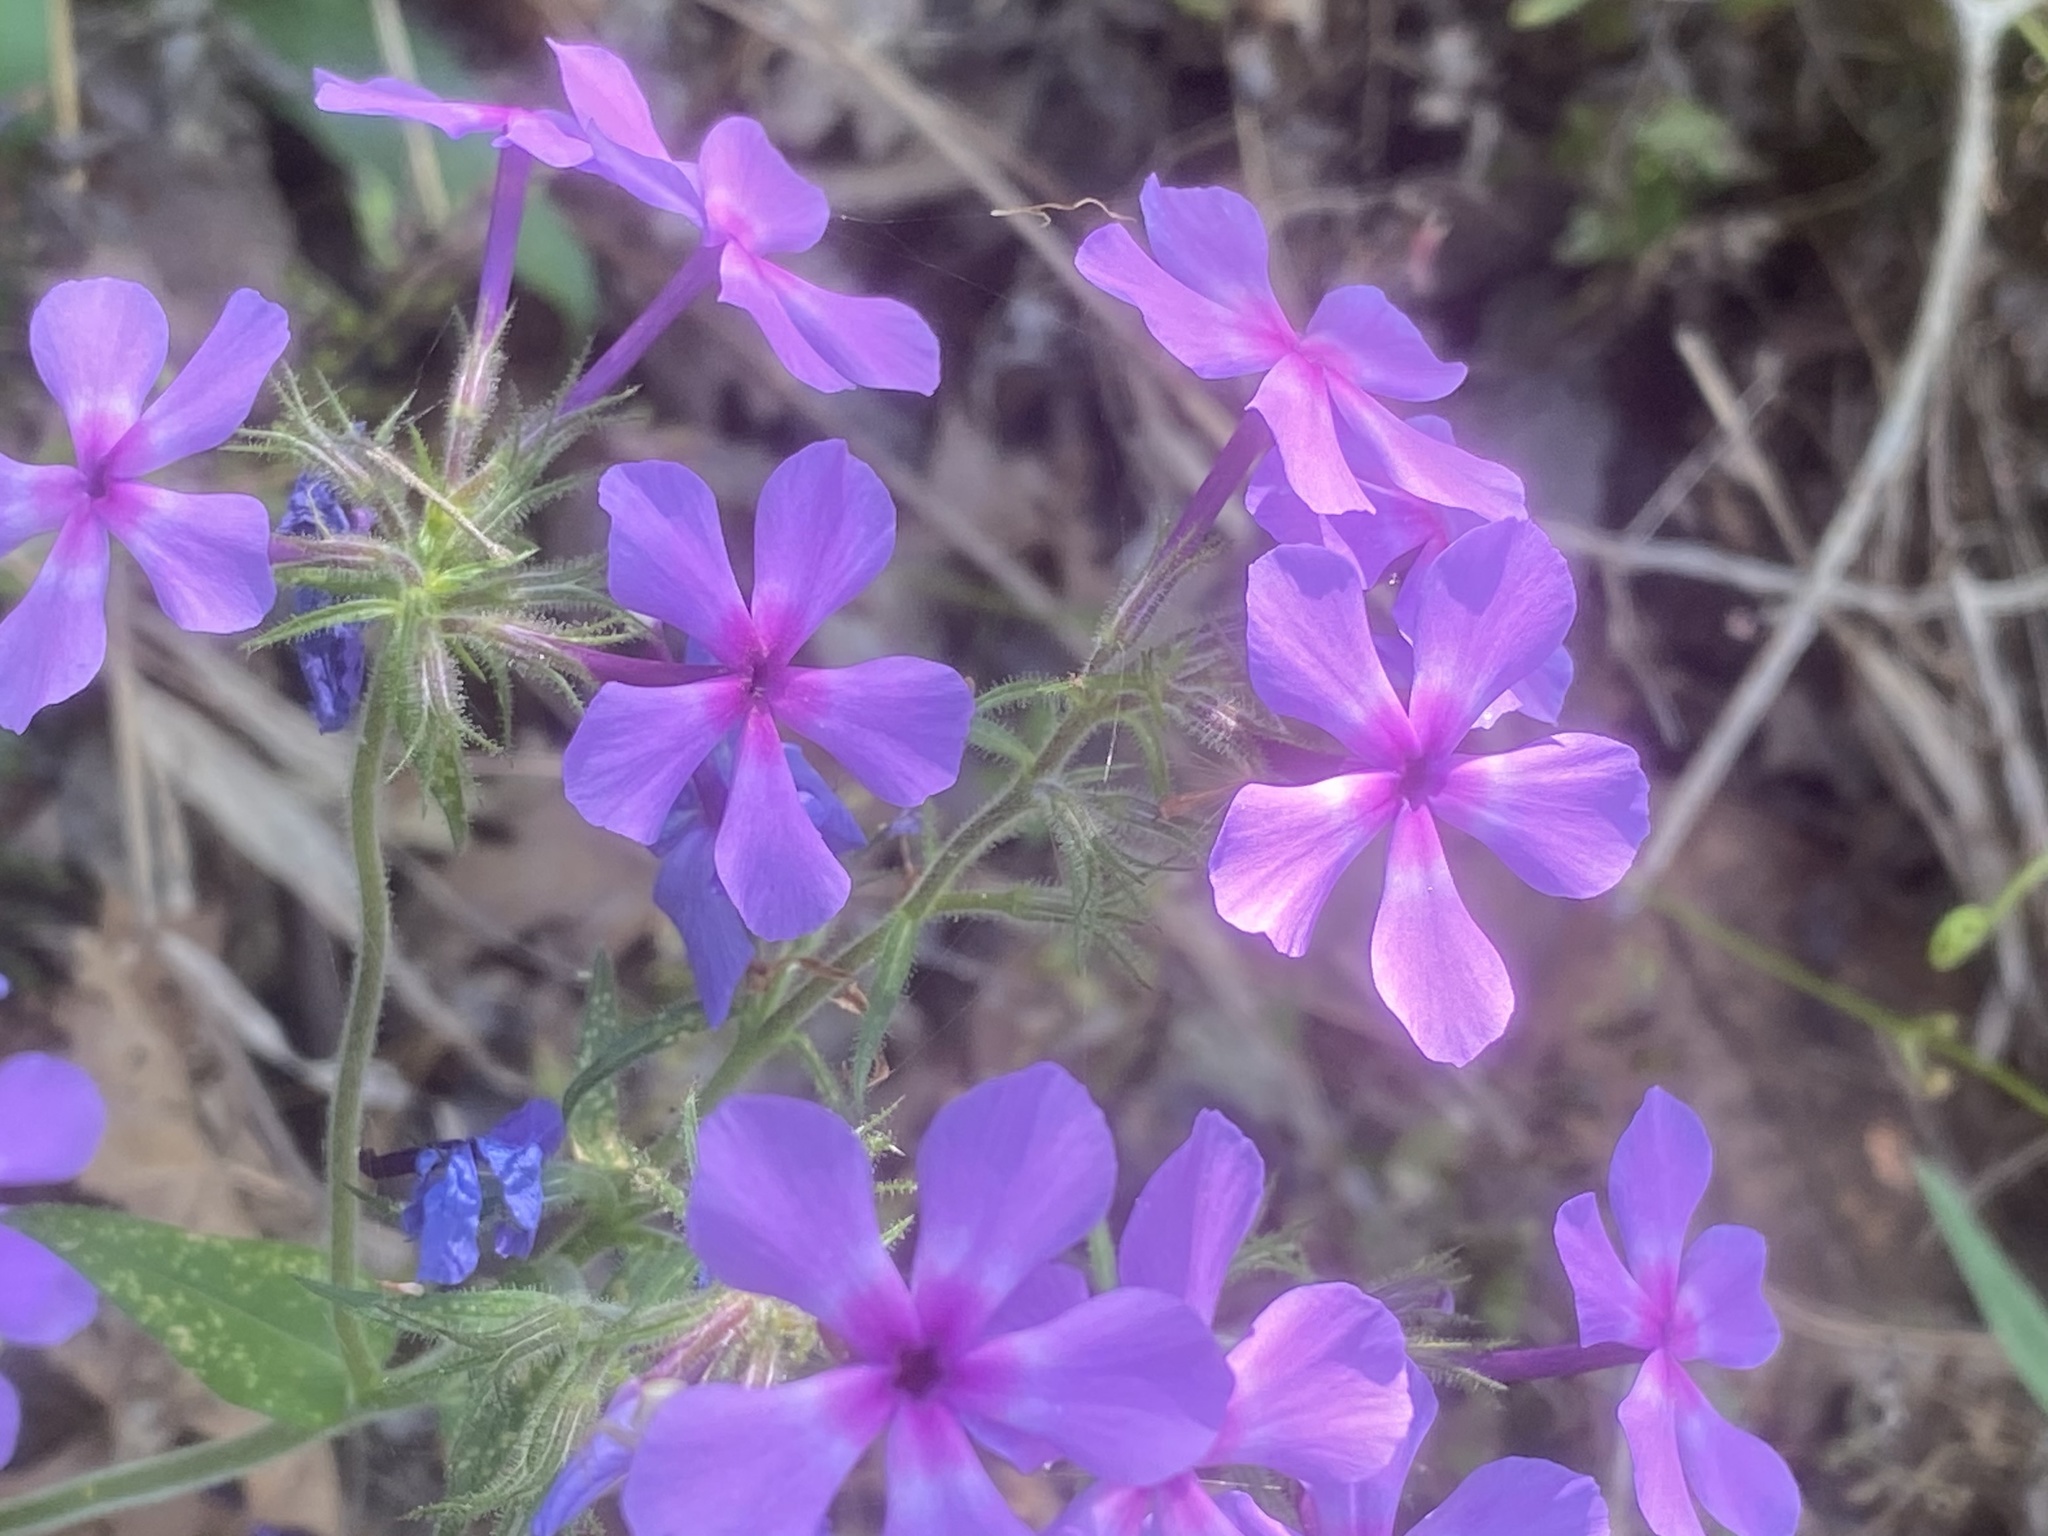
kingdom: Plantae
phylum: Tracheophyta
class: Magnoliopsida
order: Ericales
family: Polemoniaceae
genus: Phlox
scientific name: Phlox divaricata
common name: Blue phlox
